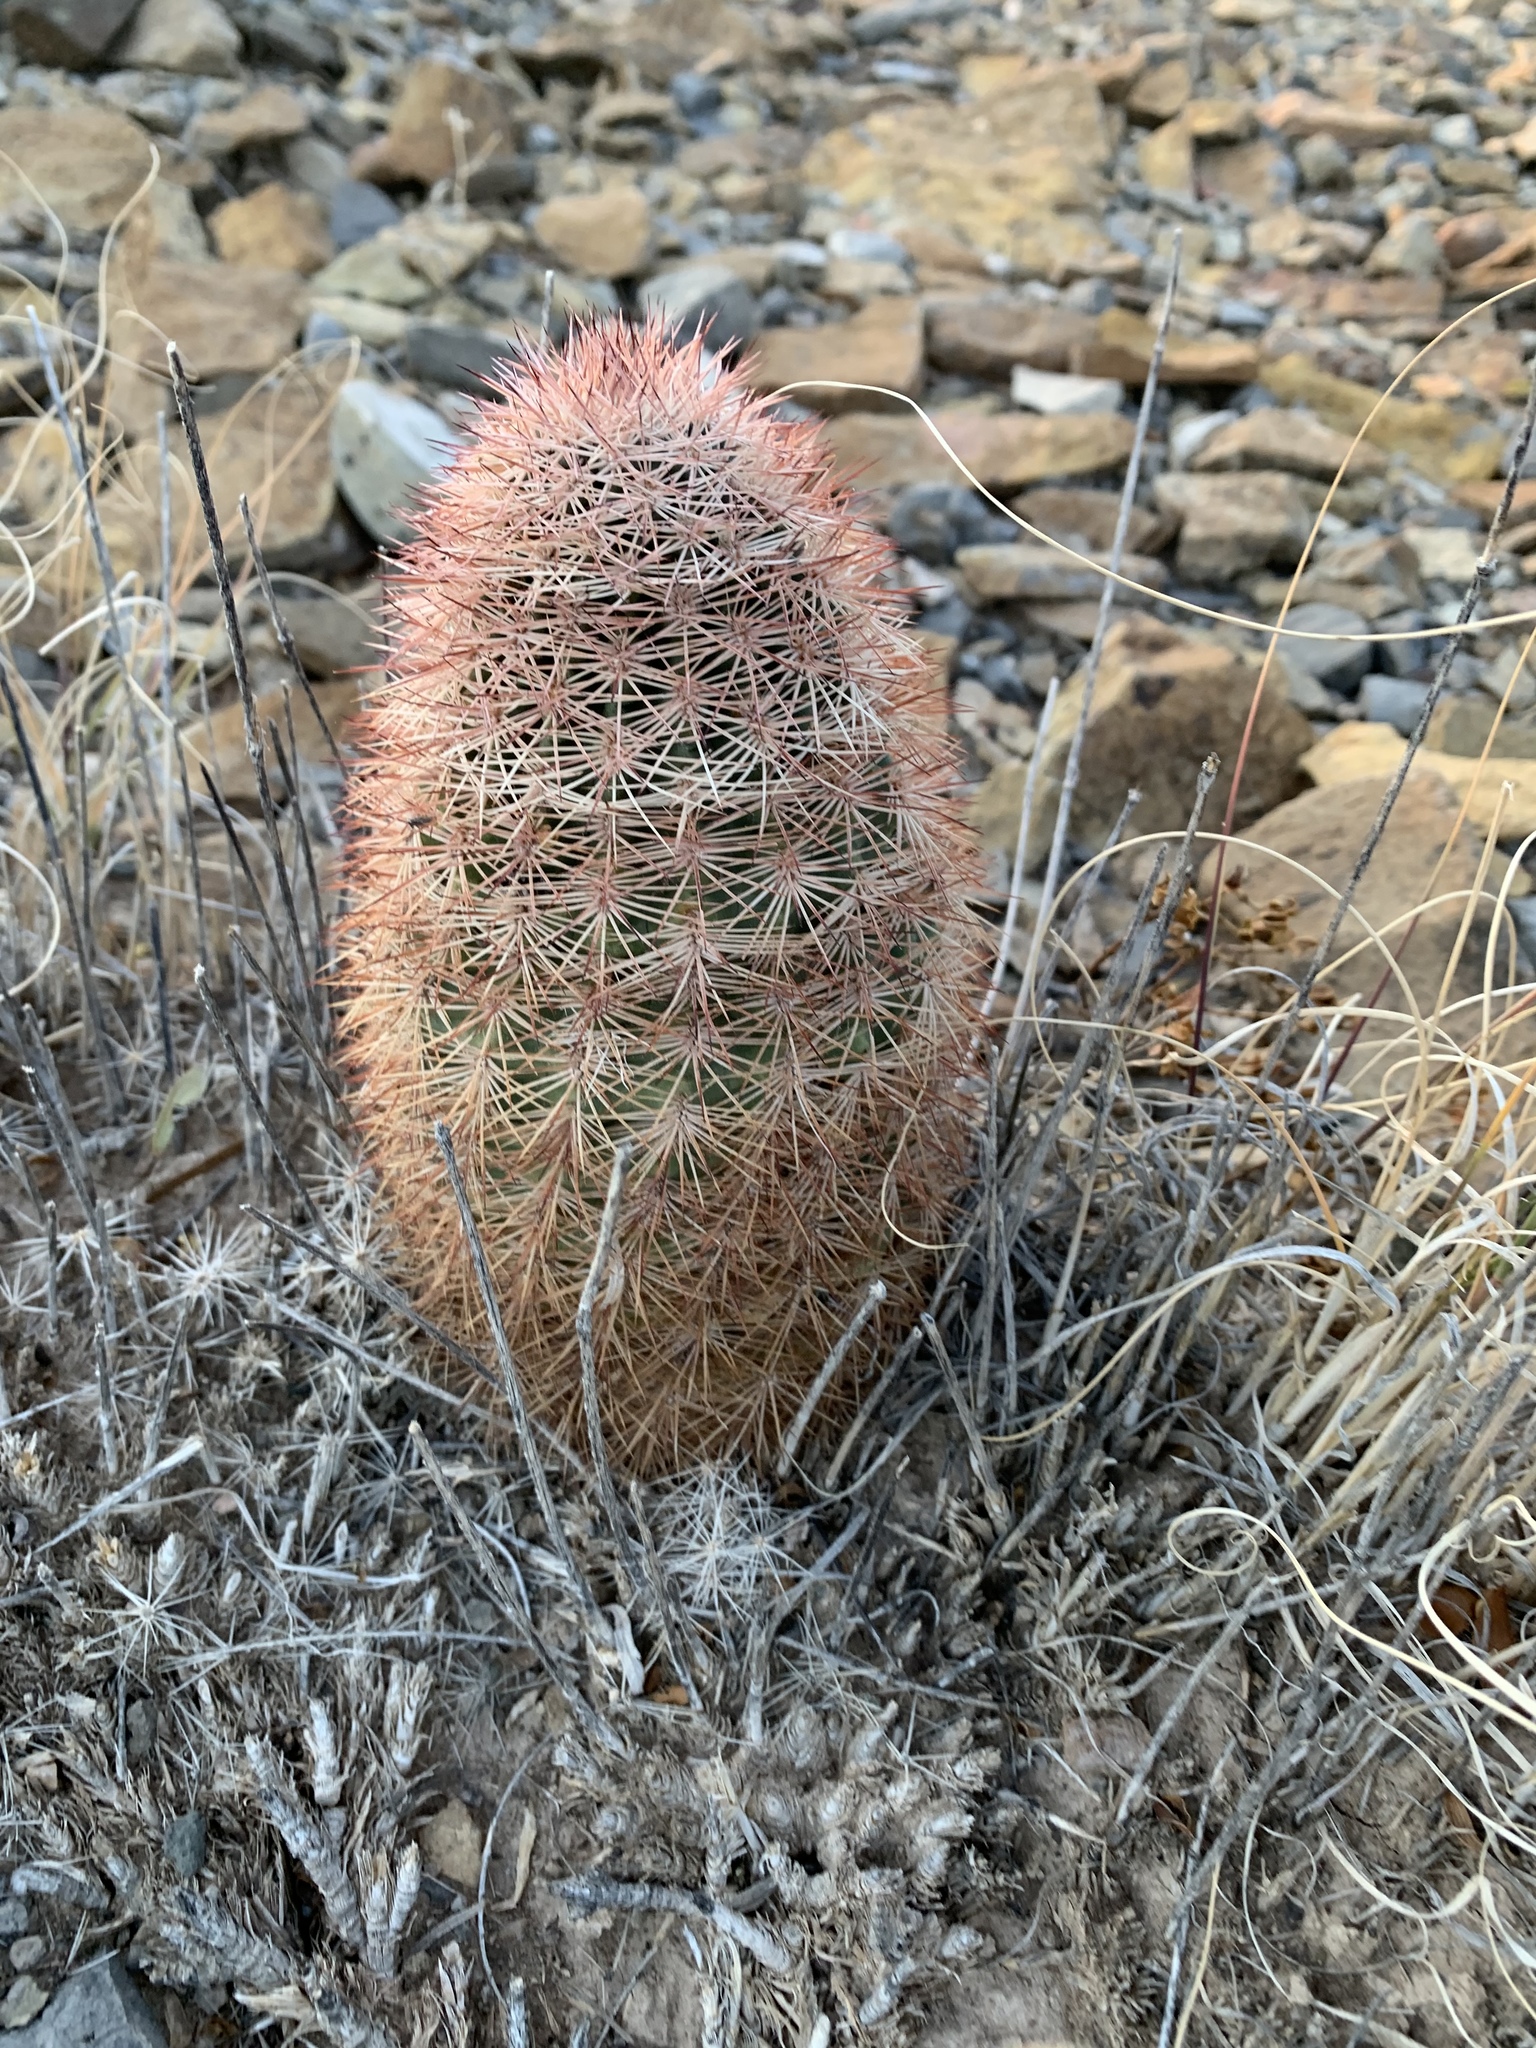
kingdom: Plantae
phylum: Tracheophyta
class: Magnoliopsida
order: Caryophyllales
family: Cactaceae
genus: Echinocereus
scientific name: Echinocereus dasyacanthus
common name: Spiny hedgehog cactus
